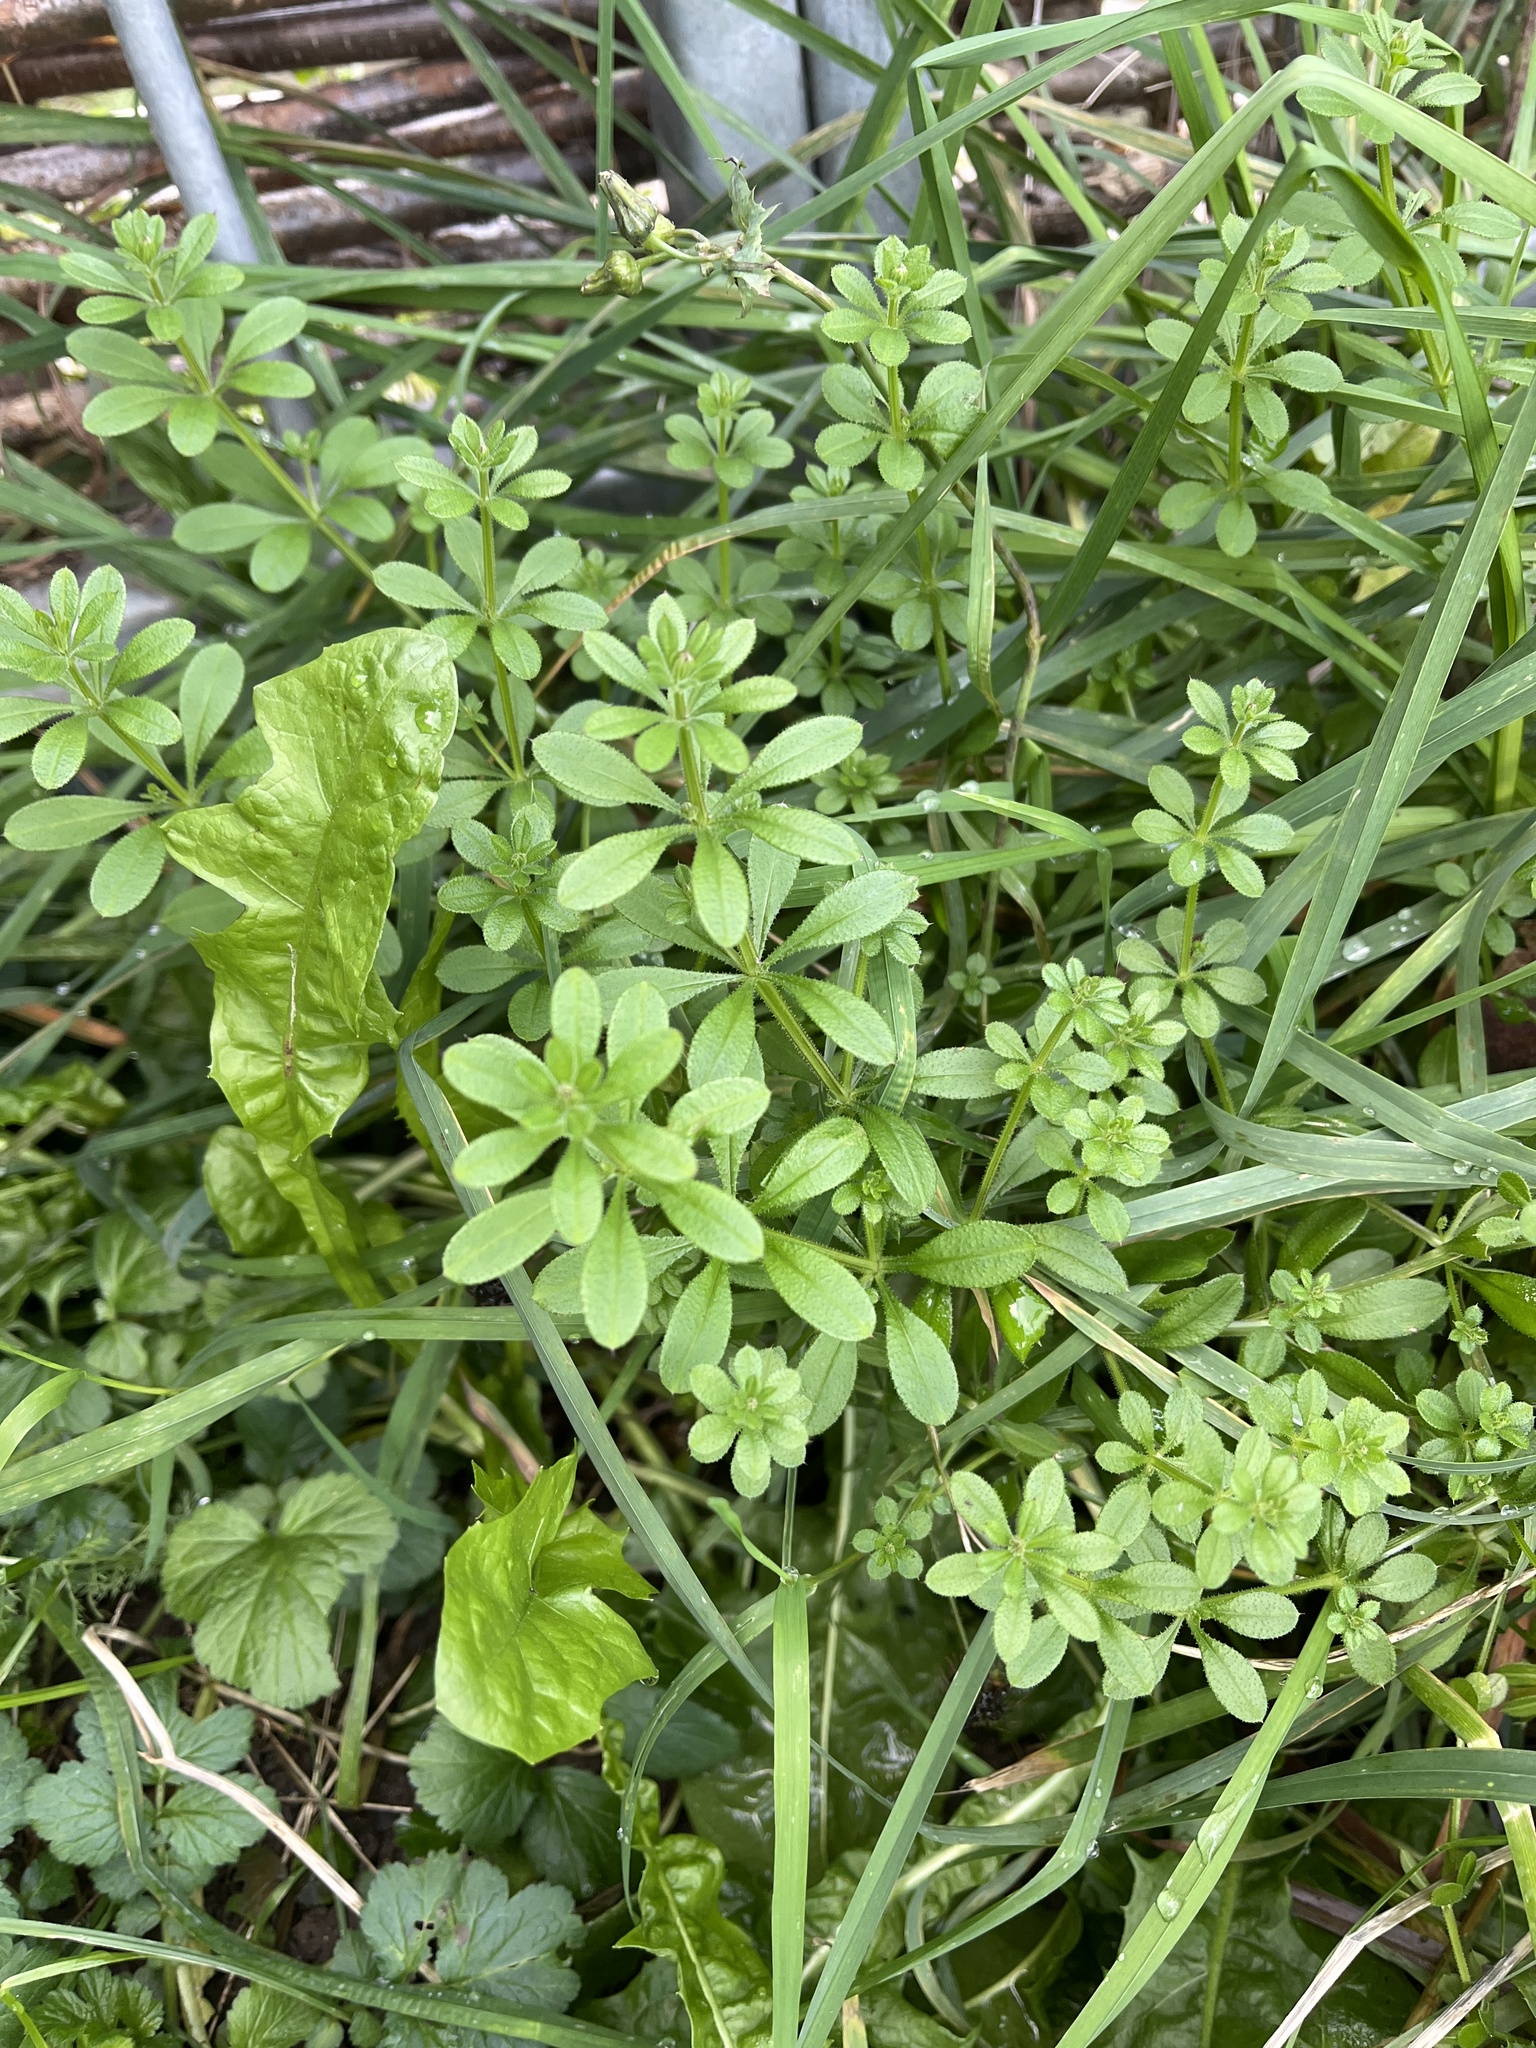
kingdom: Plantae
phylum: Tracheophyta
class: Magnoliopsida
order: Gentianales
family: Rubiaceae
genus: Galium
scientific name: Galium aparine
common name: Cleavers
